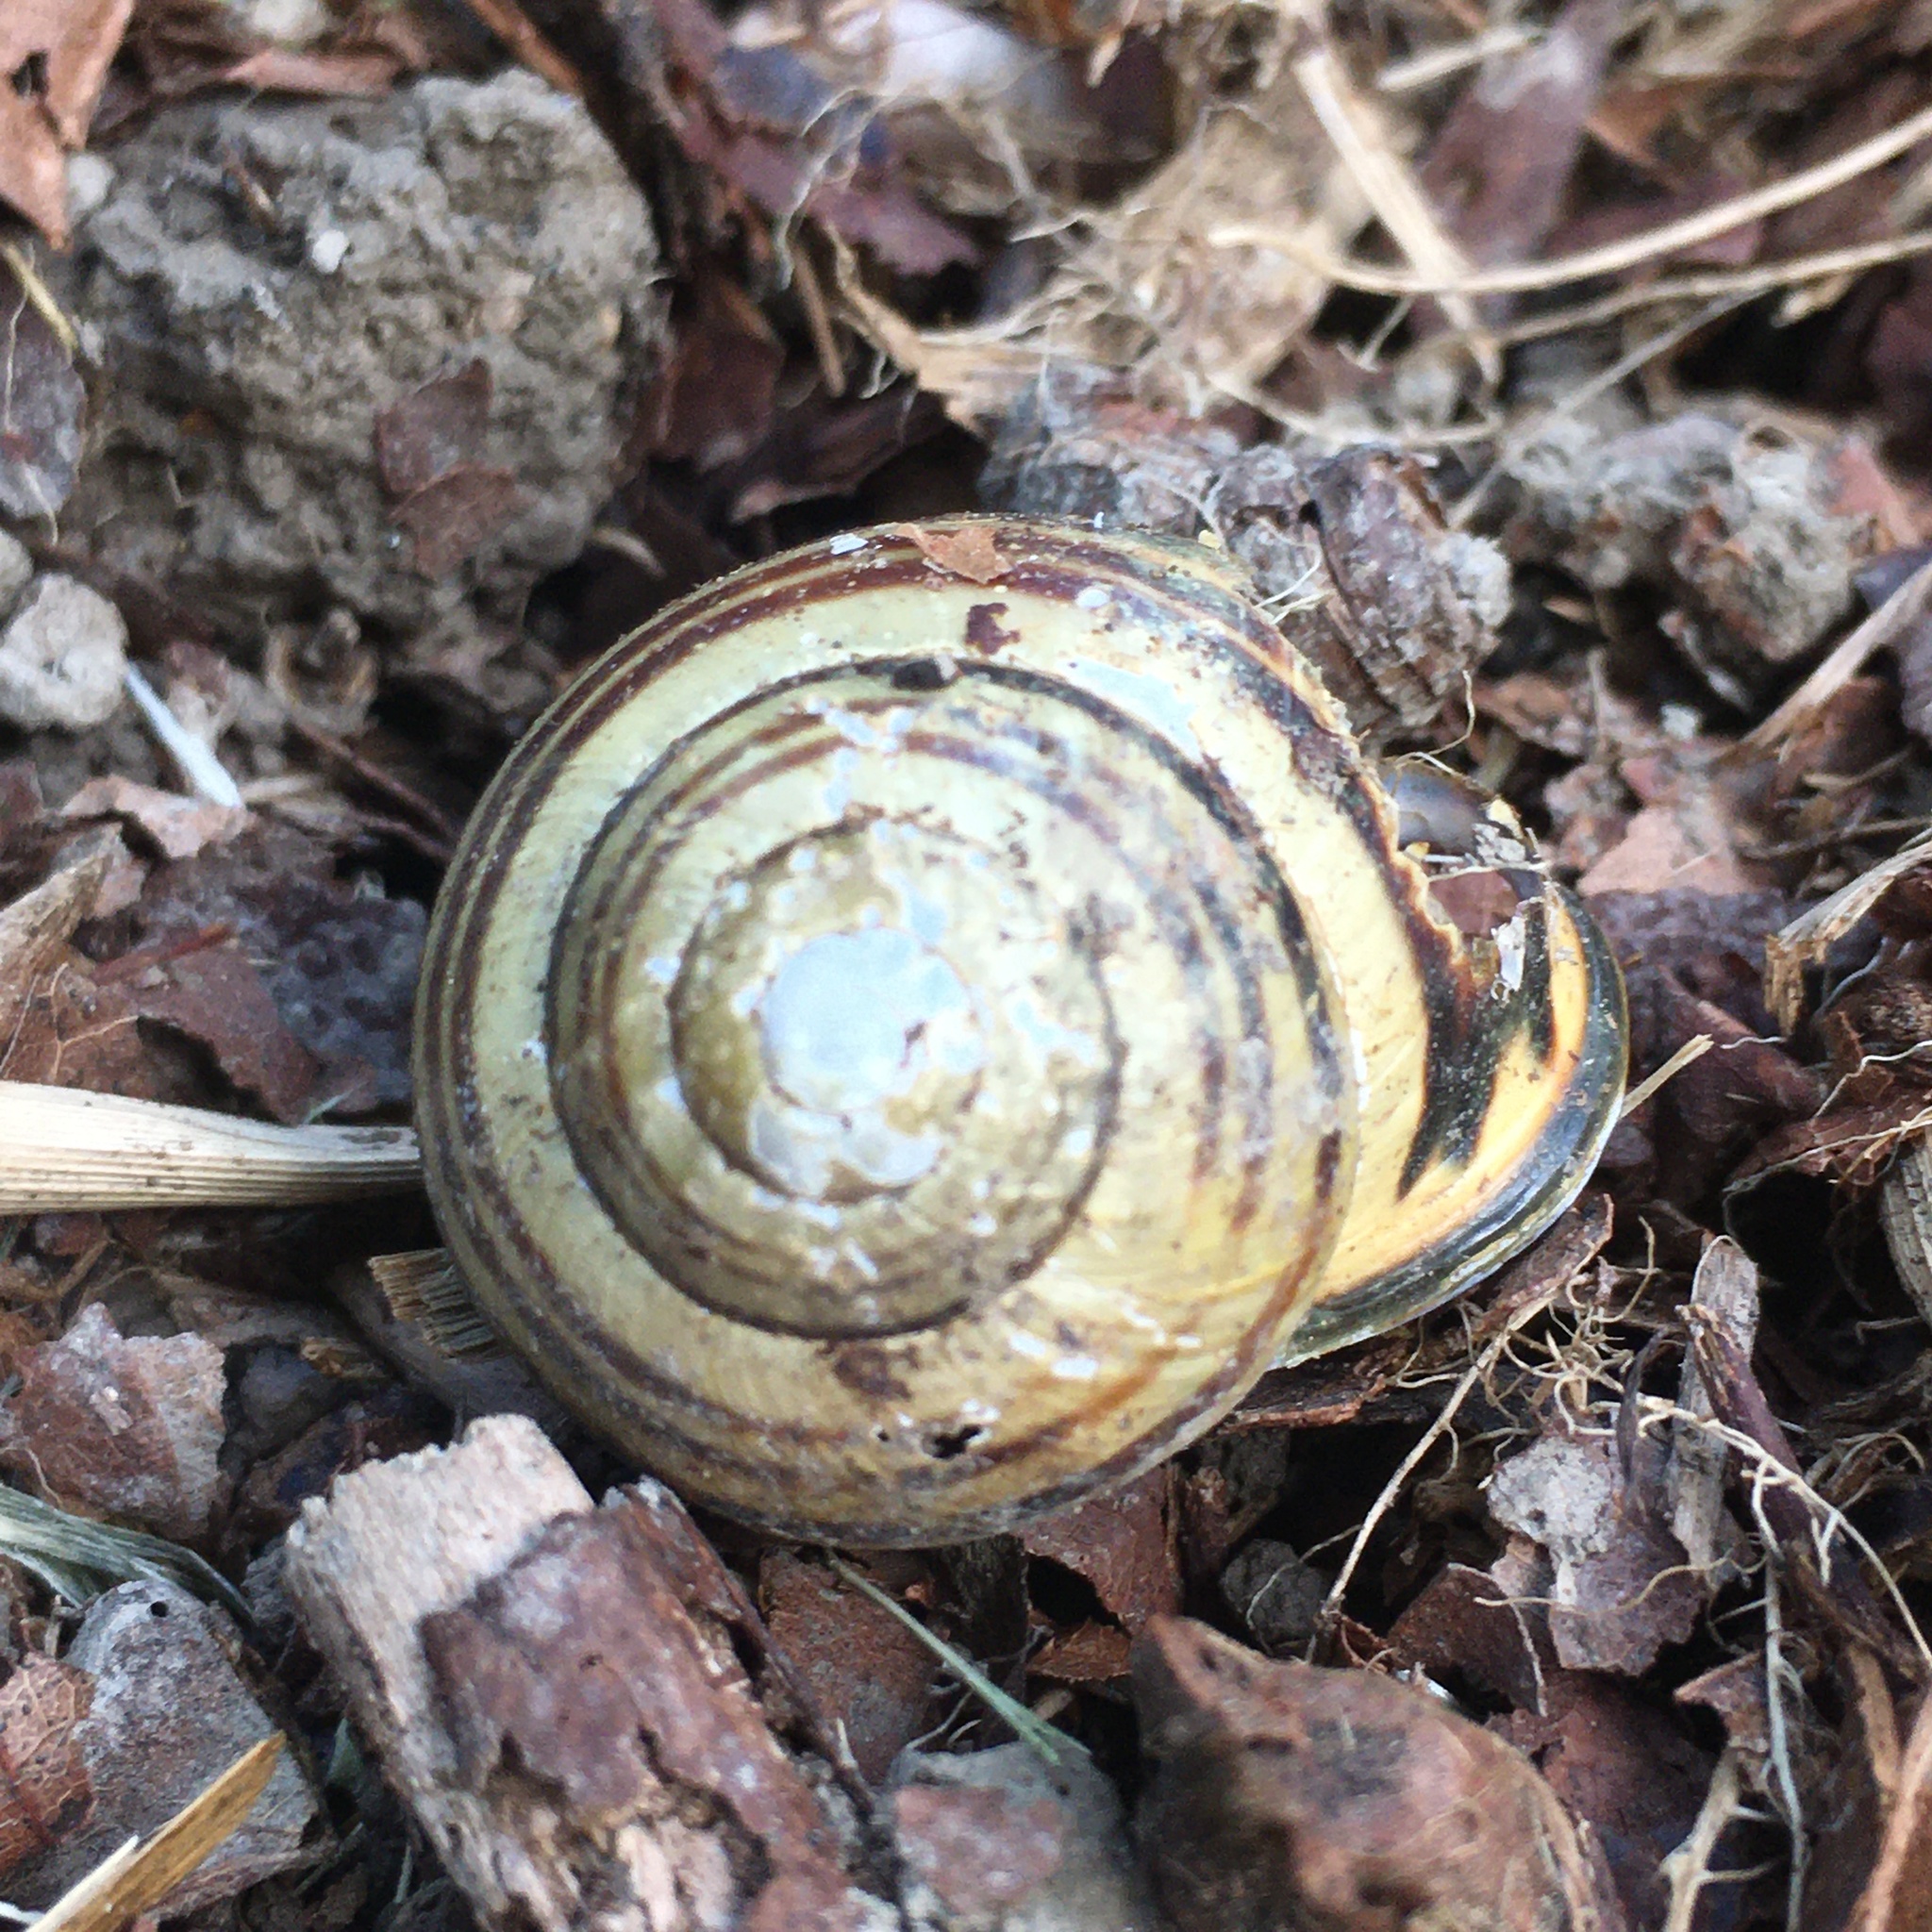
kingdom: Animalia
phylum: Mollusca
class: Gastropoda
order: Stylommatophora
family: Helicidae
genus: Cepaea
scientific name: Cepaea nemoralis
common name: Grovesnail
